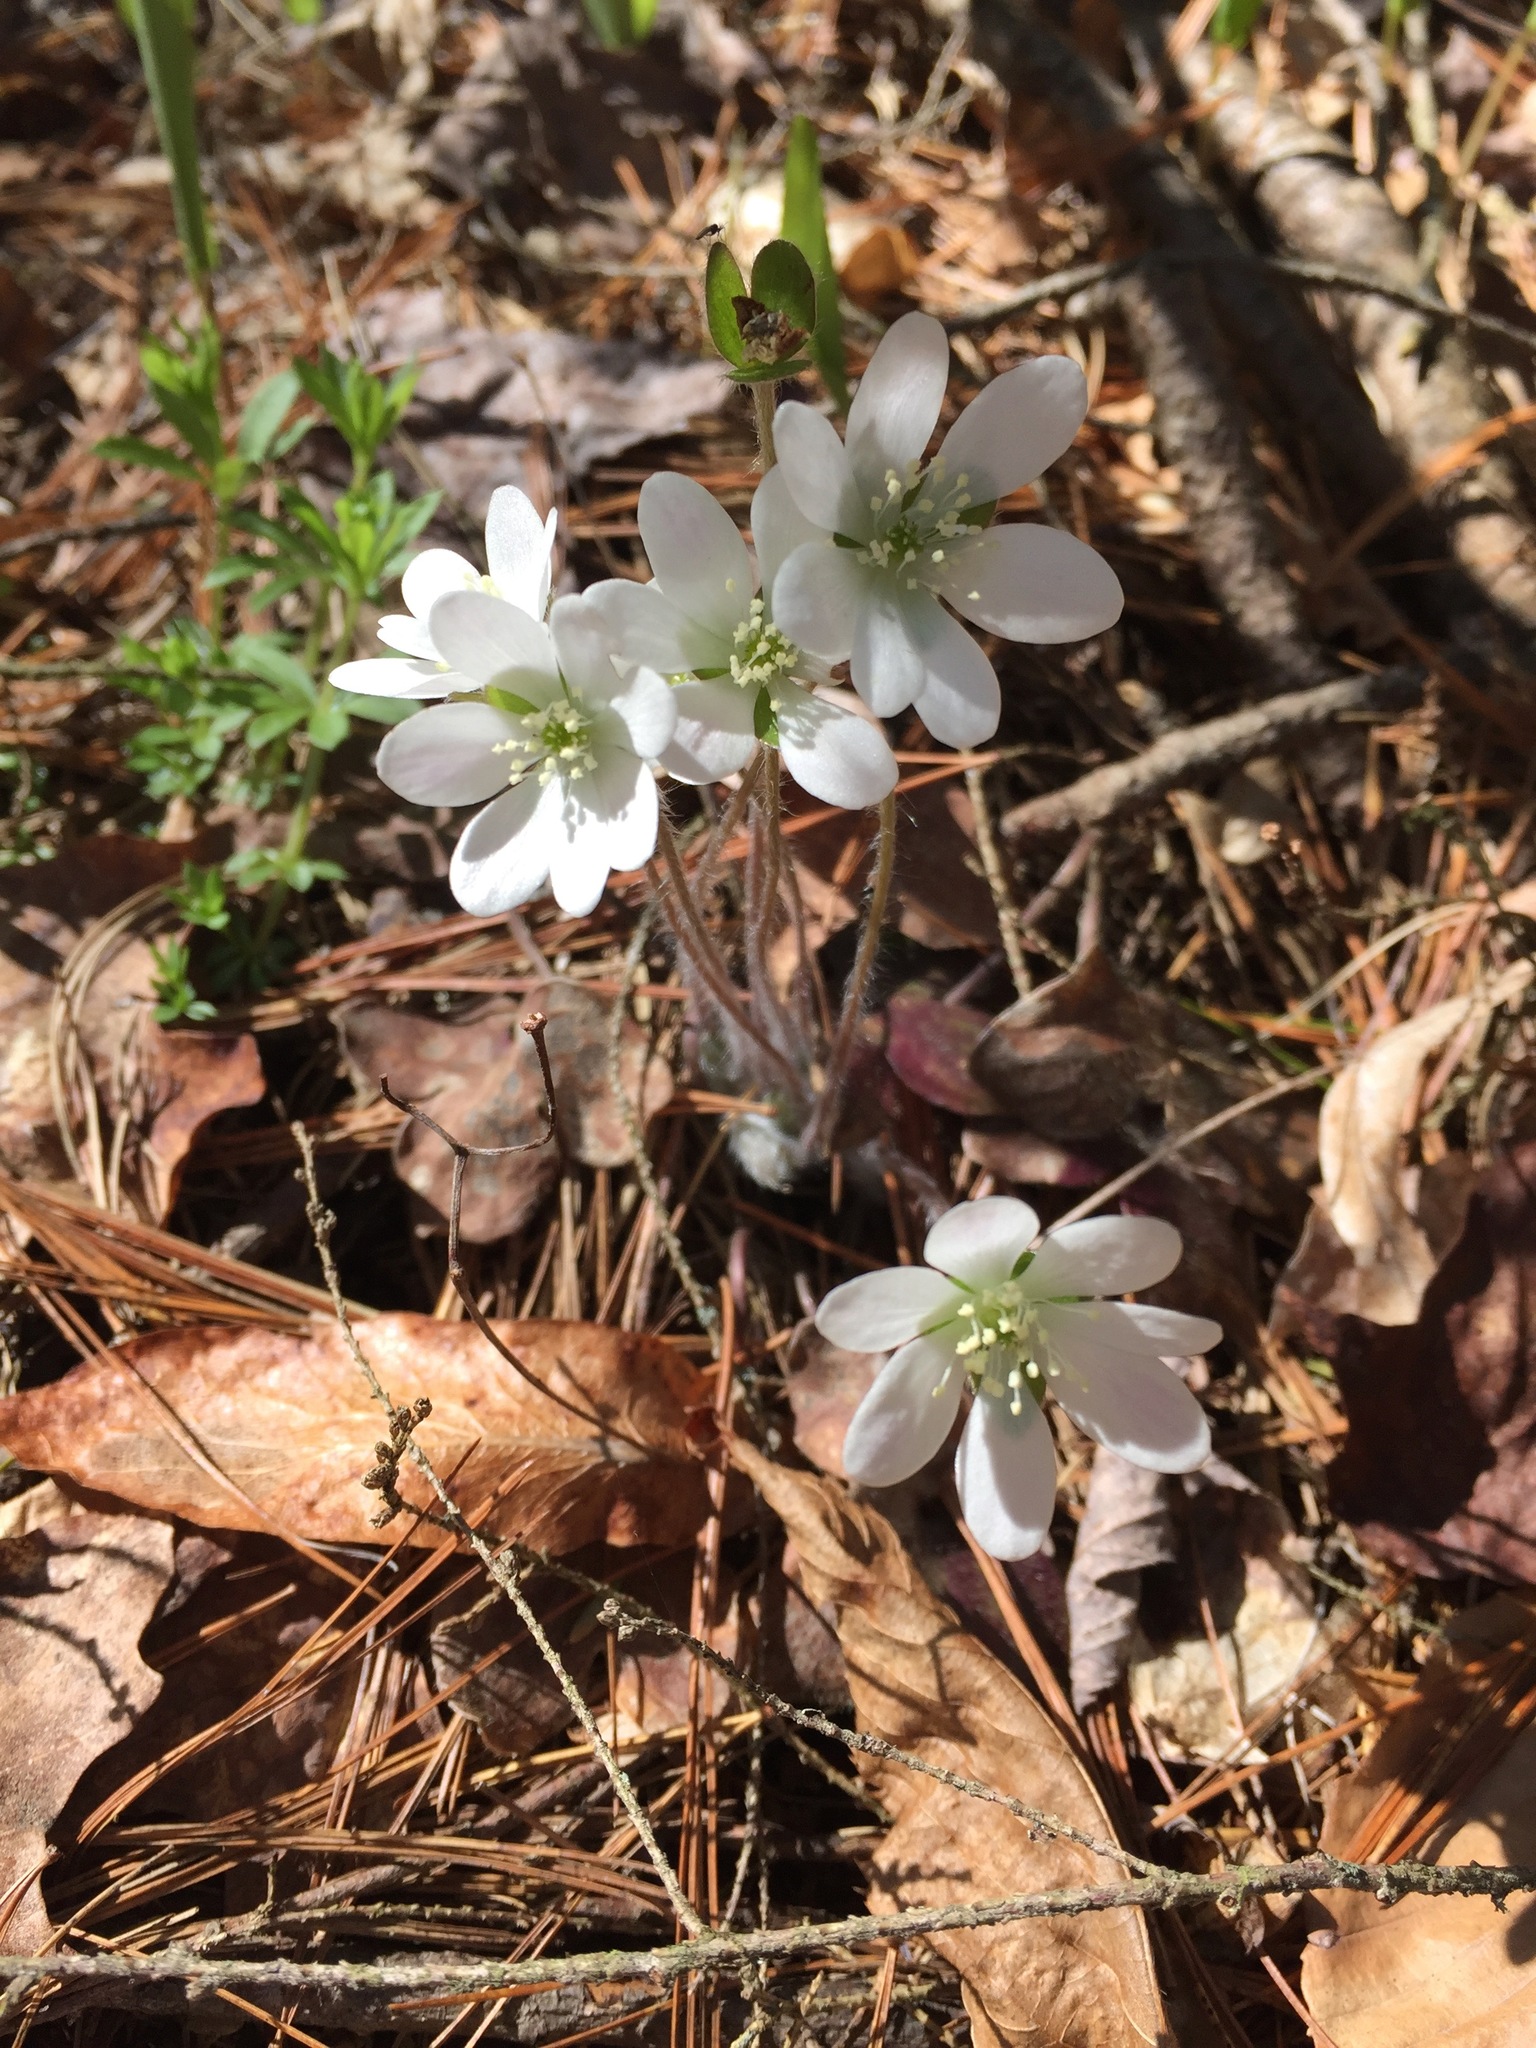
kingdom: Plantae
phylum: Tracheophyta
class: Magnoliopsida
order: Ranunculales
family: Ranunculaceae
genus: Hepatica
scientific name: Hepatica americana
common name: American hepatica
